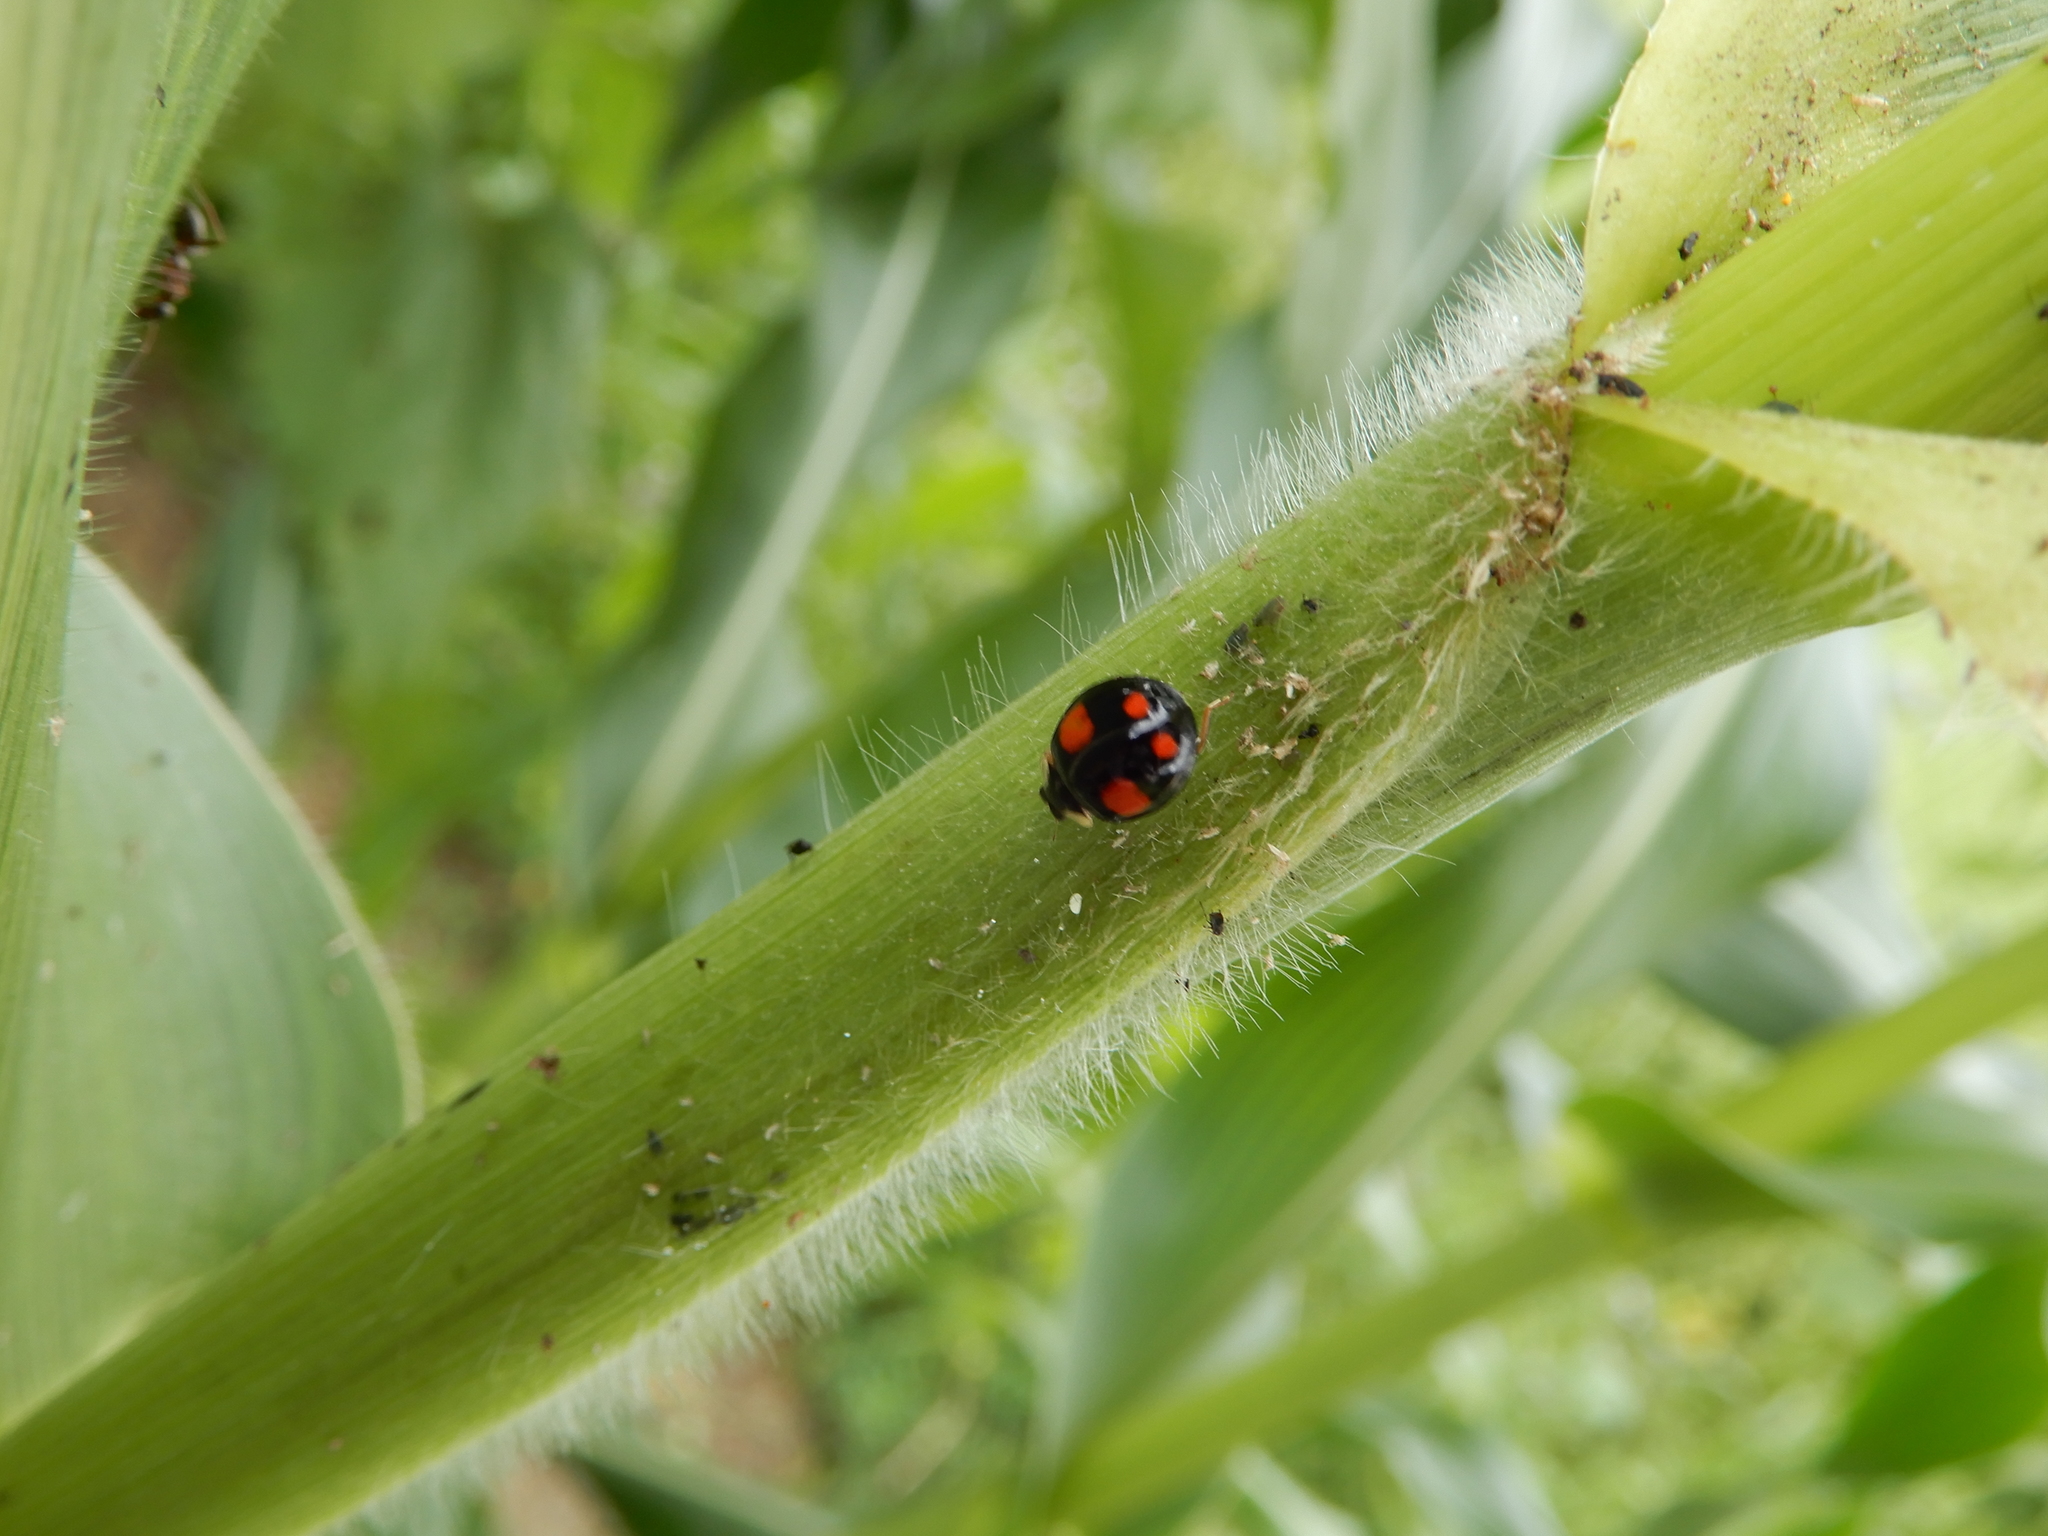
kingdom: Animalia
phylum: Arthropoda
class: Insecta
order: Coleoptera
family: Coccinellidae
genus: Harmonia
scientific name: Harmonia axyridis
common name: Harlequin ladybird
